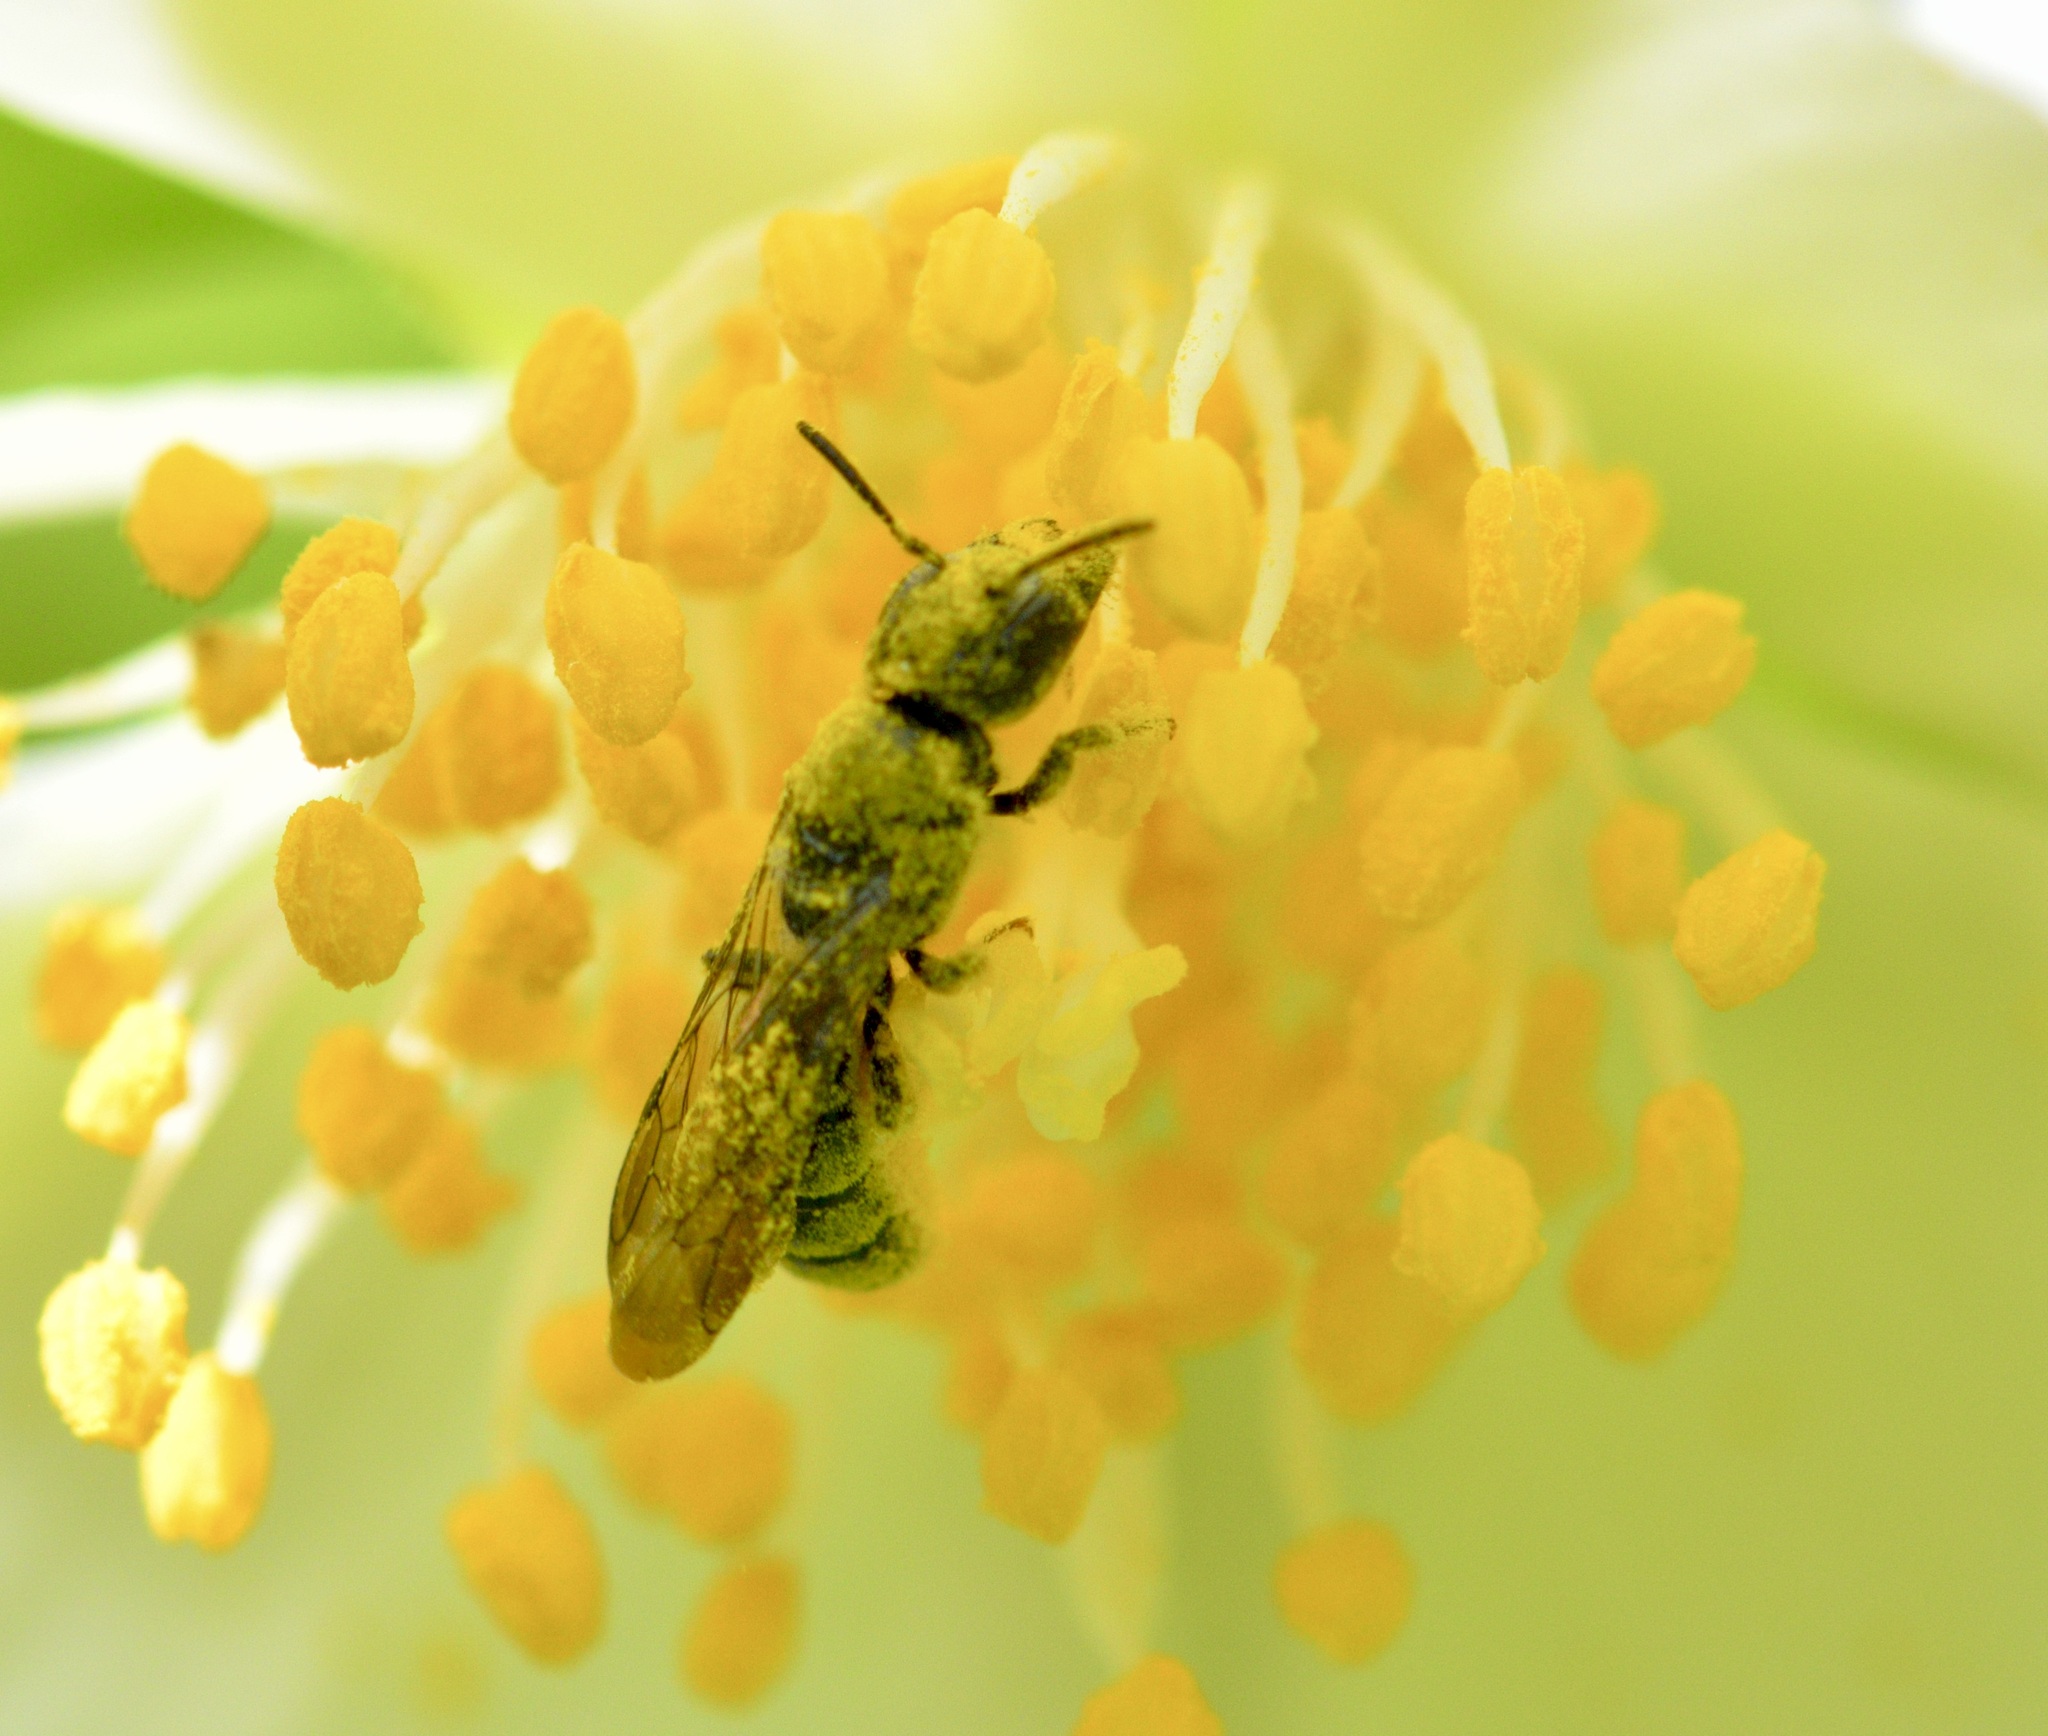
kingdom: Animalia
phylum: Arthropoda
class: Insecta
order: Hymenoptera
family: Megachilidae
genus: Chelostoma
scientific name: Chelostoma philadelphi
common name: Mock-orange scissor bee
